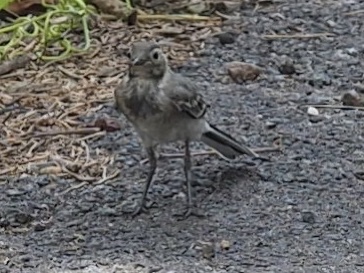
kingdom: Animalia
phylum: Chordata
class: Aves
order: Passeriformes
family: Motacillidae
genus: Motacilla
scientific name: Motacilla alba
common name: White wagtail
